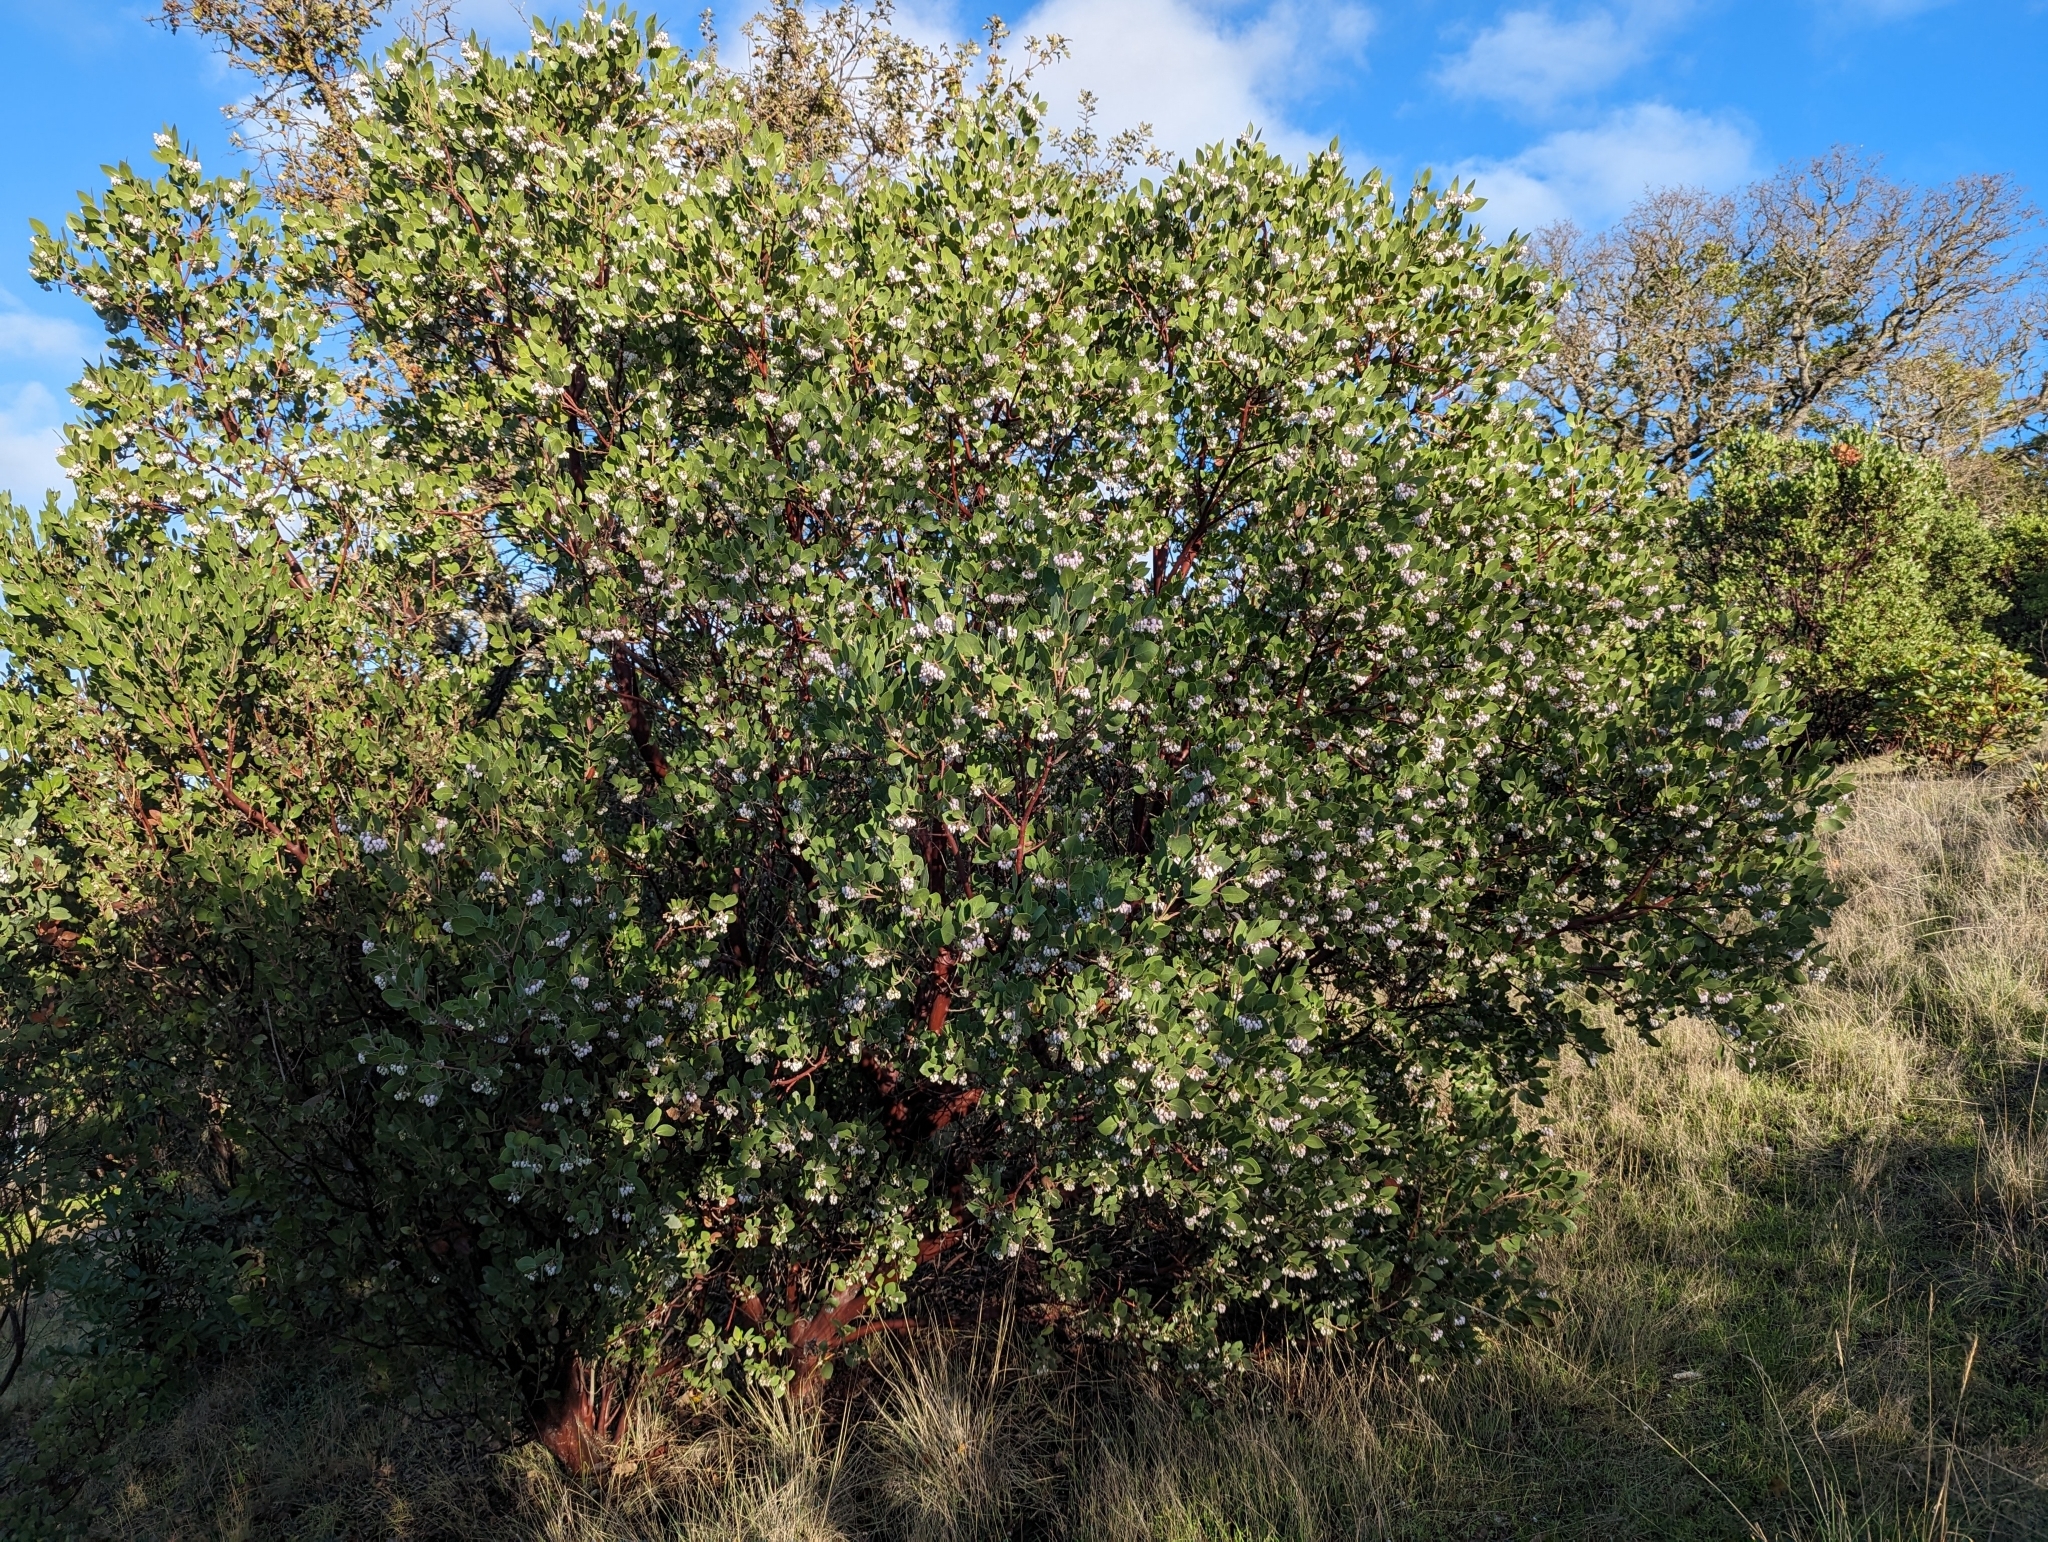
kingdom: Plantae
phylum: Tracheophyta
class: Magnoliopsida
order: Ericales
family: Ericaceae
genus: Arctostaphylos
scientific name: Arctostaphylos manzanita
